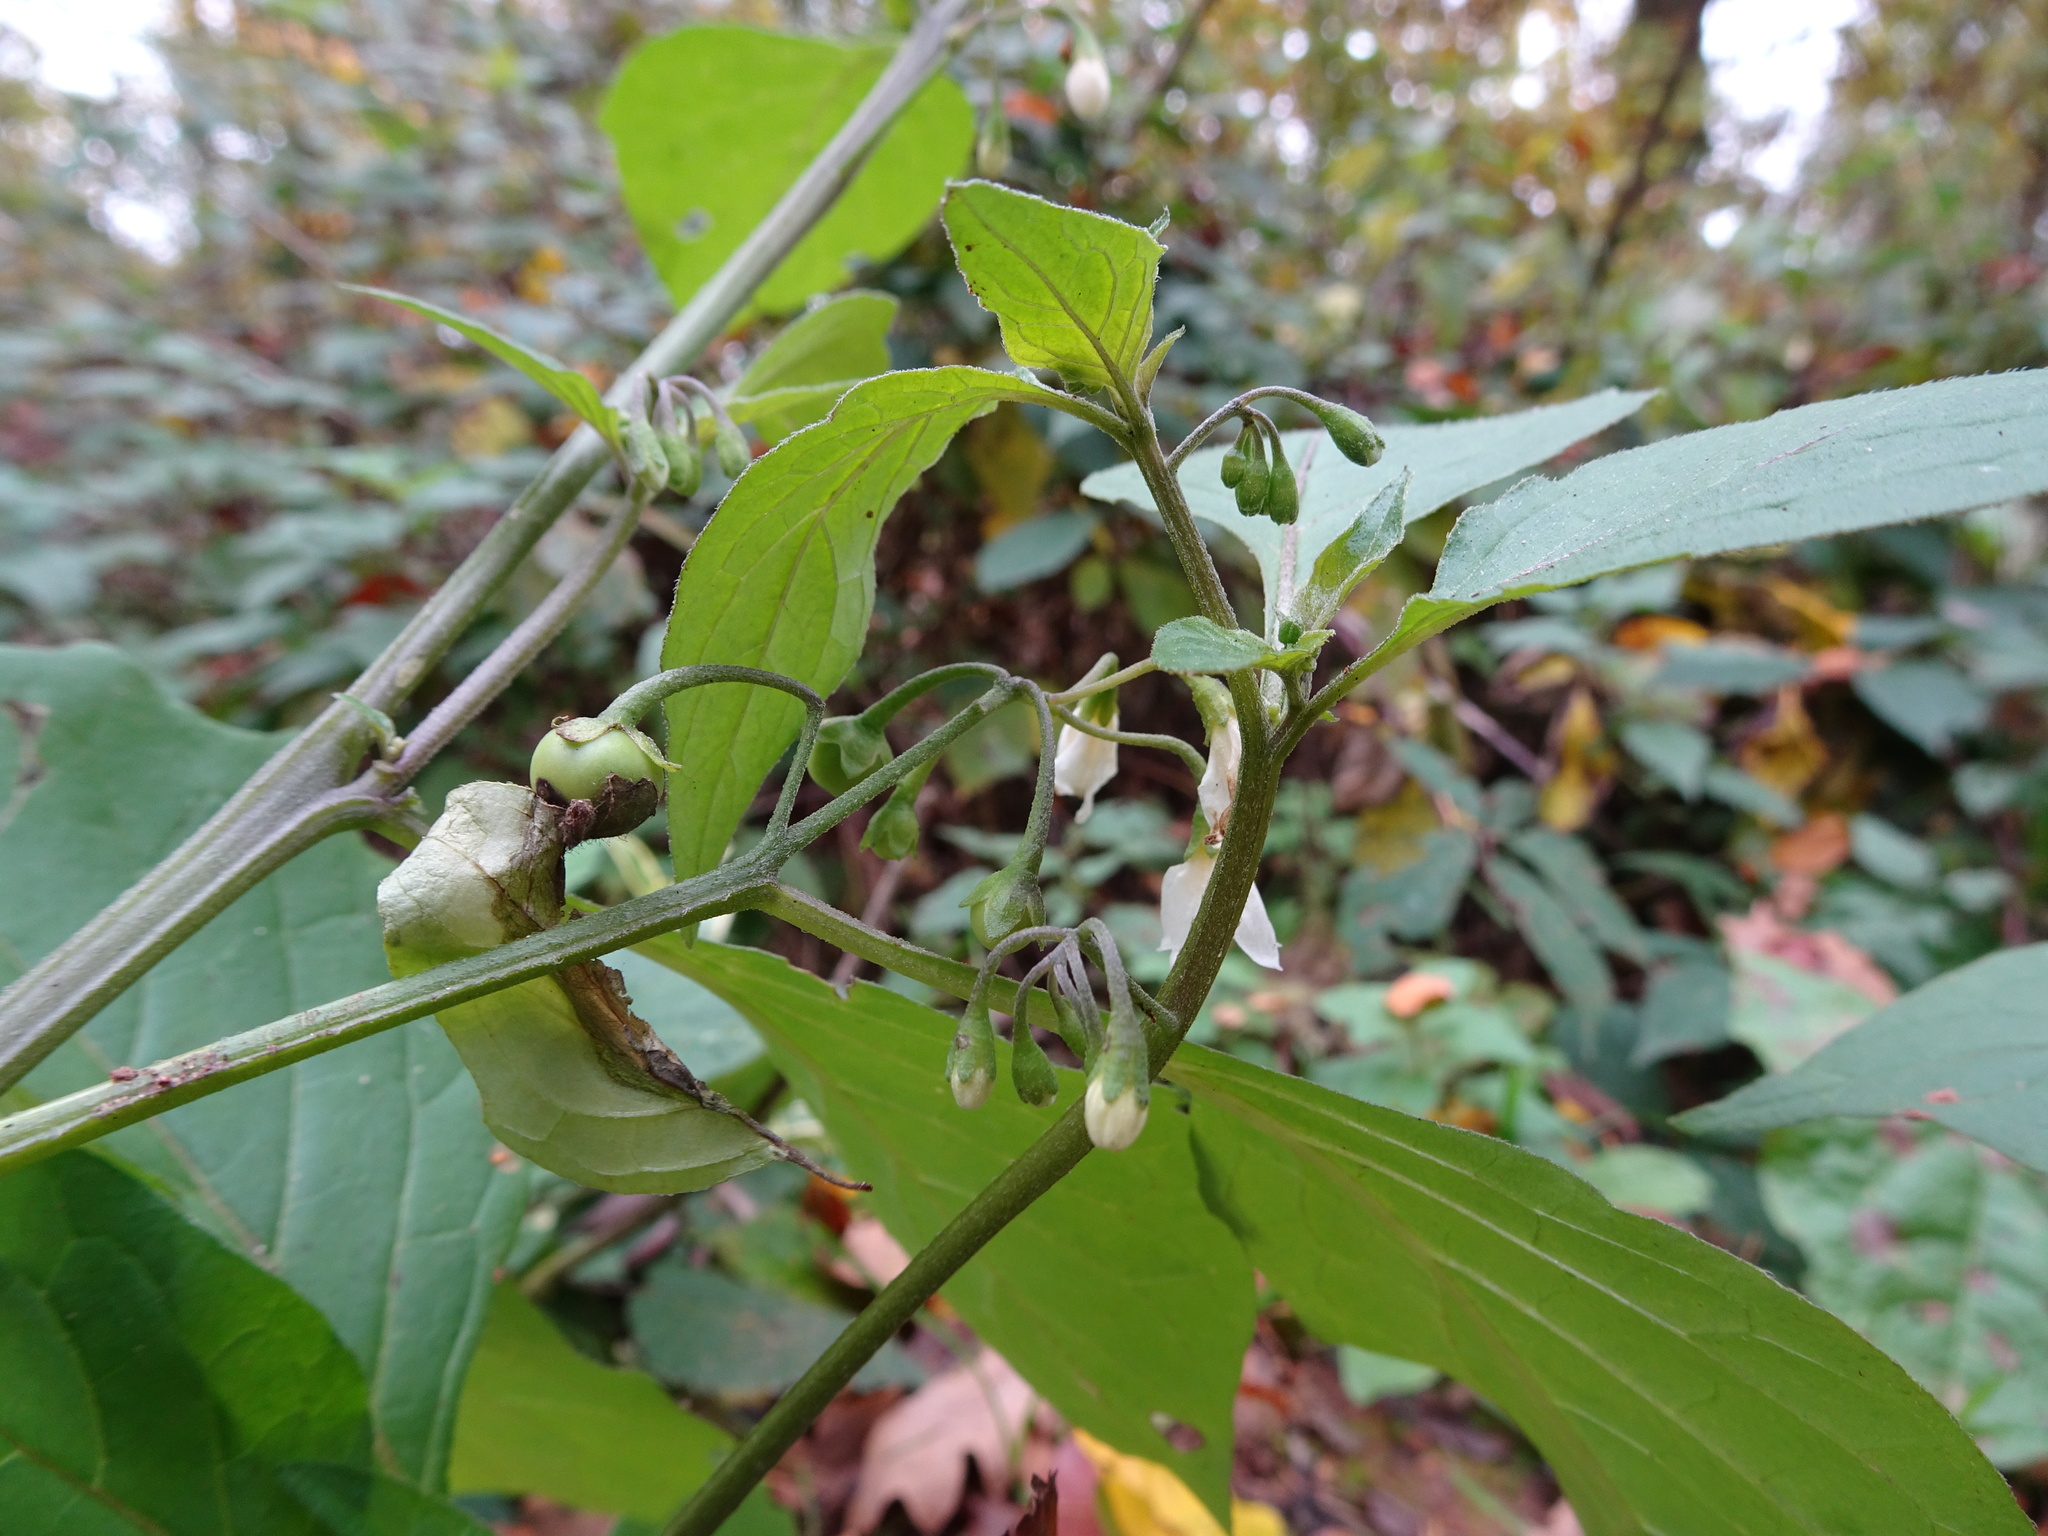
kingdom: Plantae
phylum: Tracheophyta
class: Magnoliopsida
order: Solanales
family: Solanaceae
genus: Solanum
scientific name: Solanum nigrum
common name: Black nightshade
